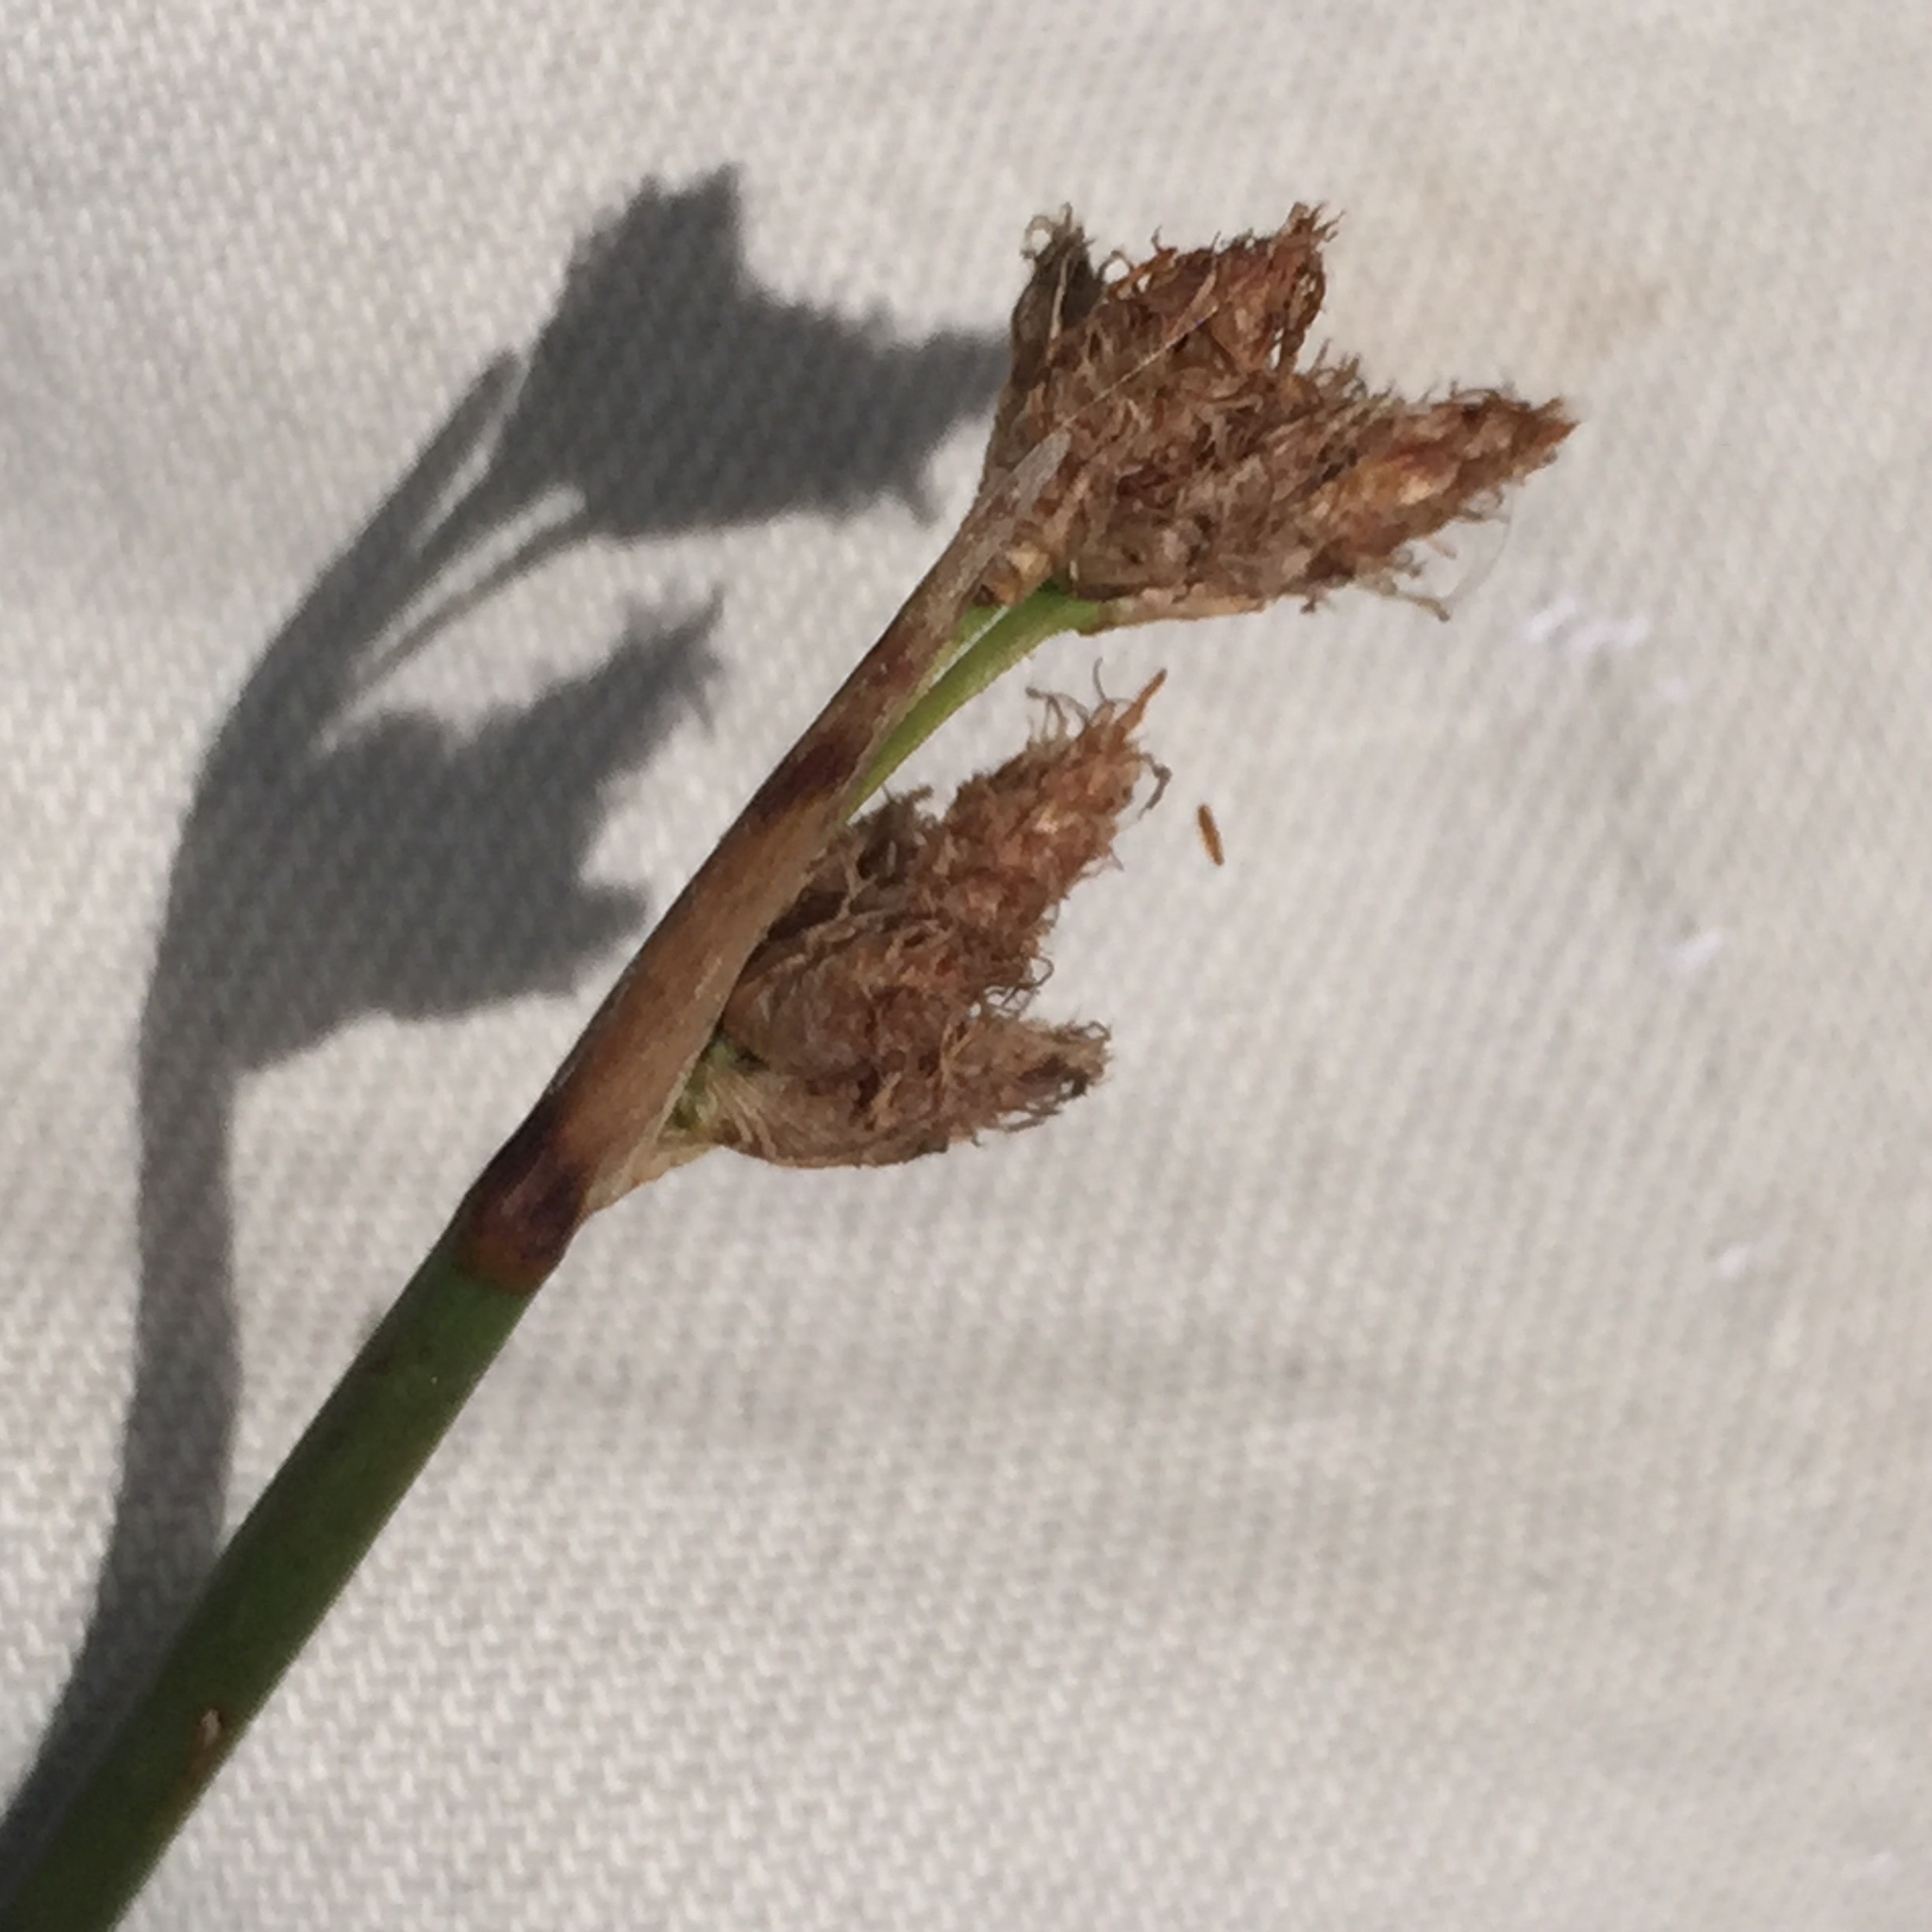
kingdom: Plantae
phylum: Tracheophyta
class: Liliopsida
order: Poales
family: Cyperaceae
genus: Schoenoplectus
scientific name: Schoenoplectus acutus
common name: Hardstem bulrush
